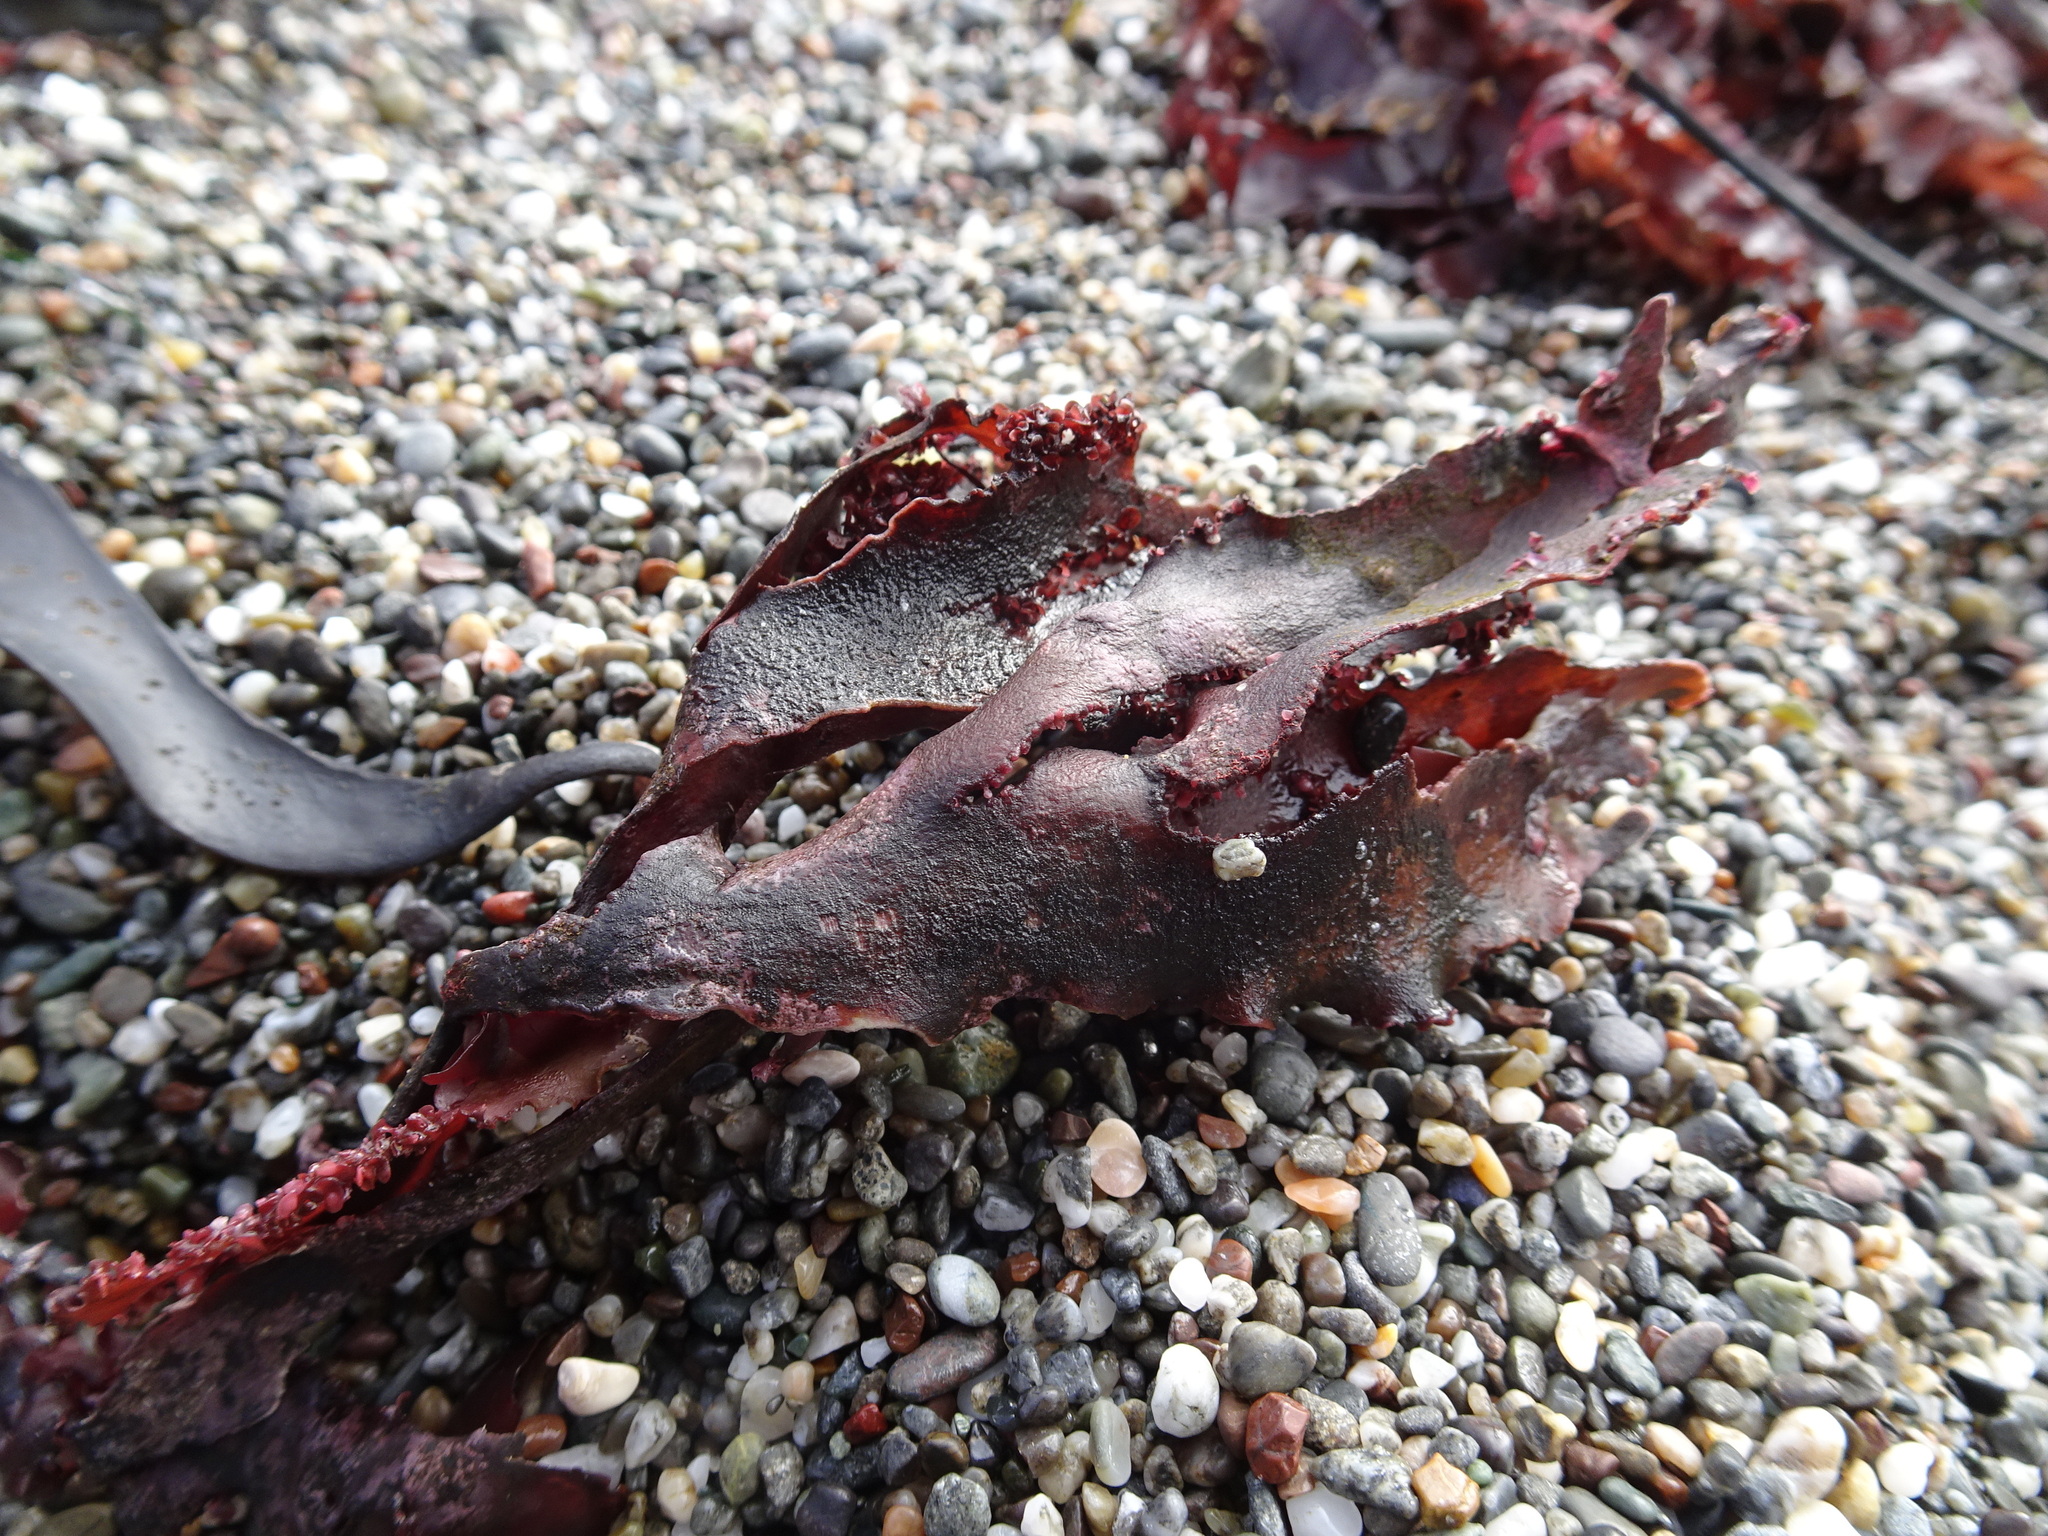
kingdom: Plantae
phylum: Rhodophyta
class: Florideophyceae
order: Ceramiales
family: Delesseriaceae
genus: Cryptopleura
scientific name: Cryptopleura ruprechtiana
